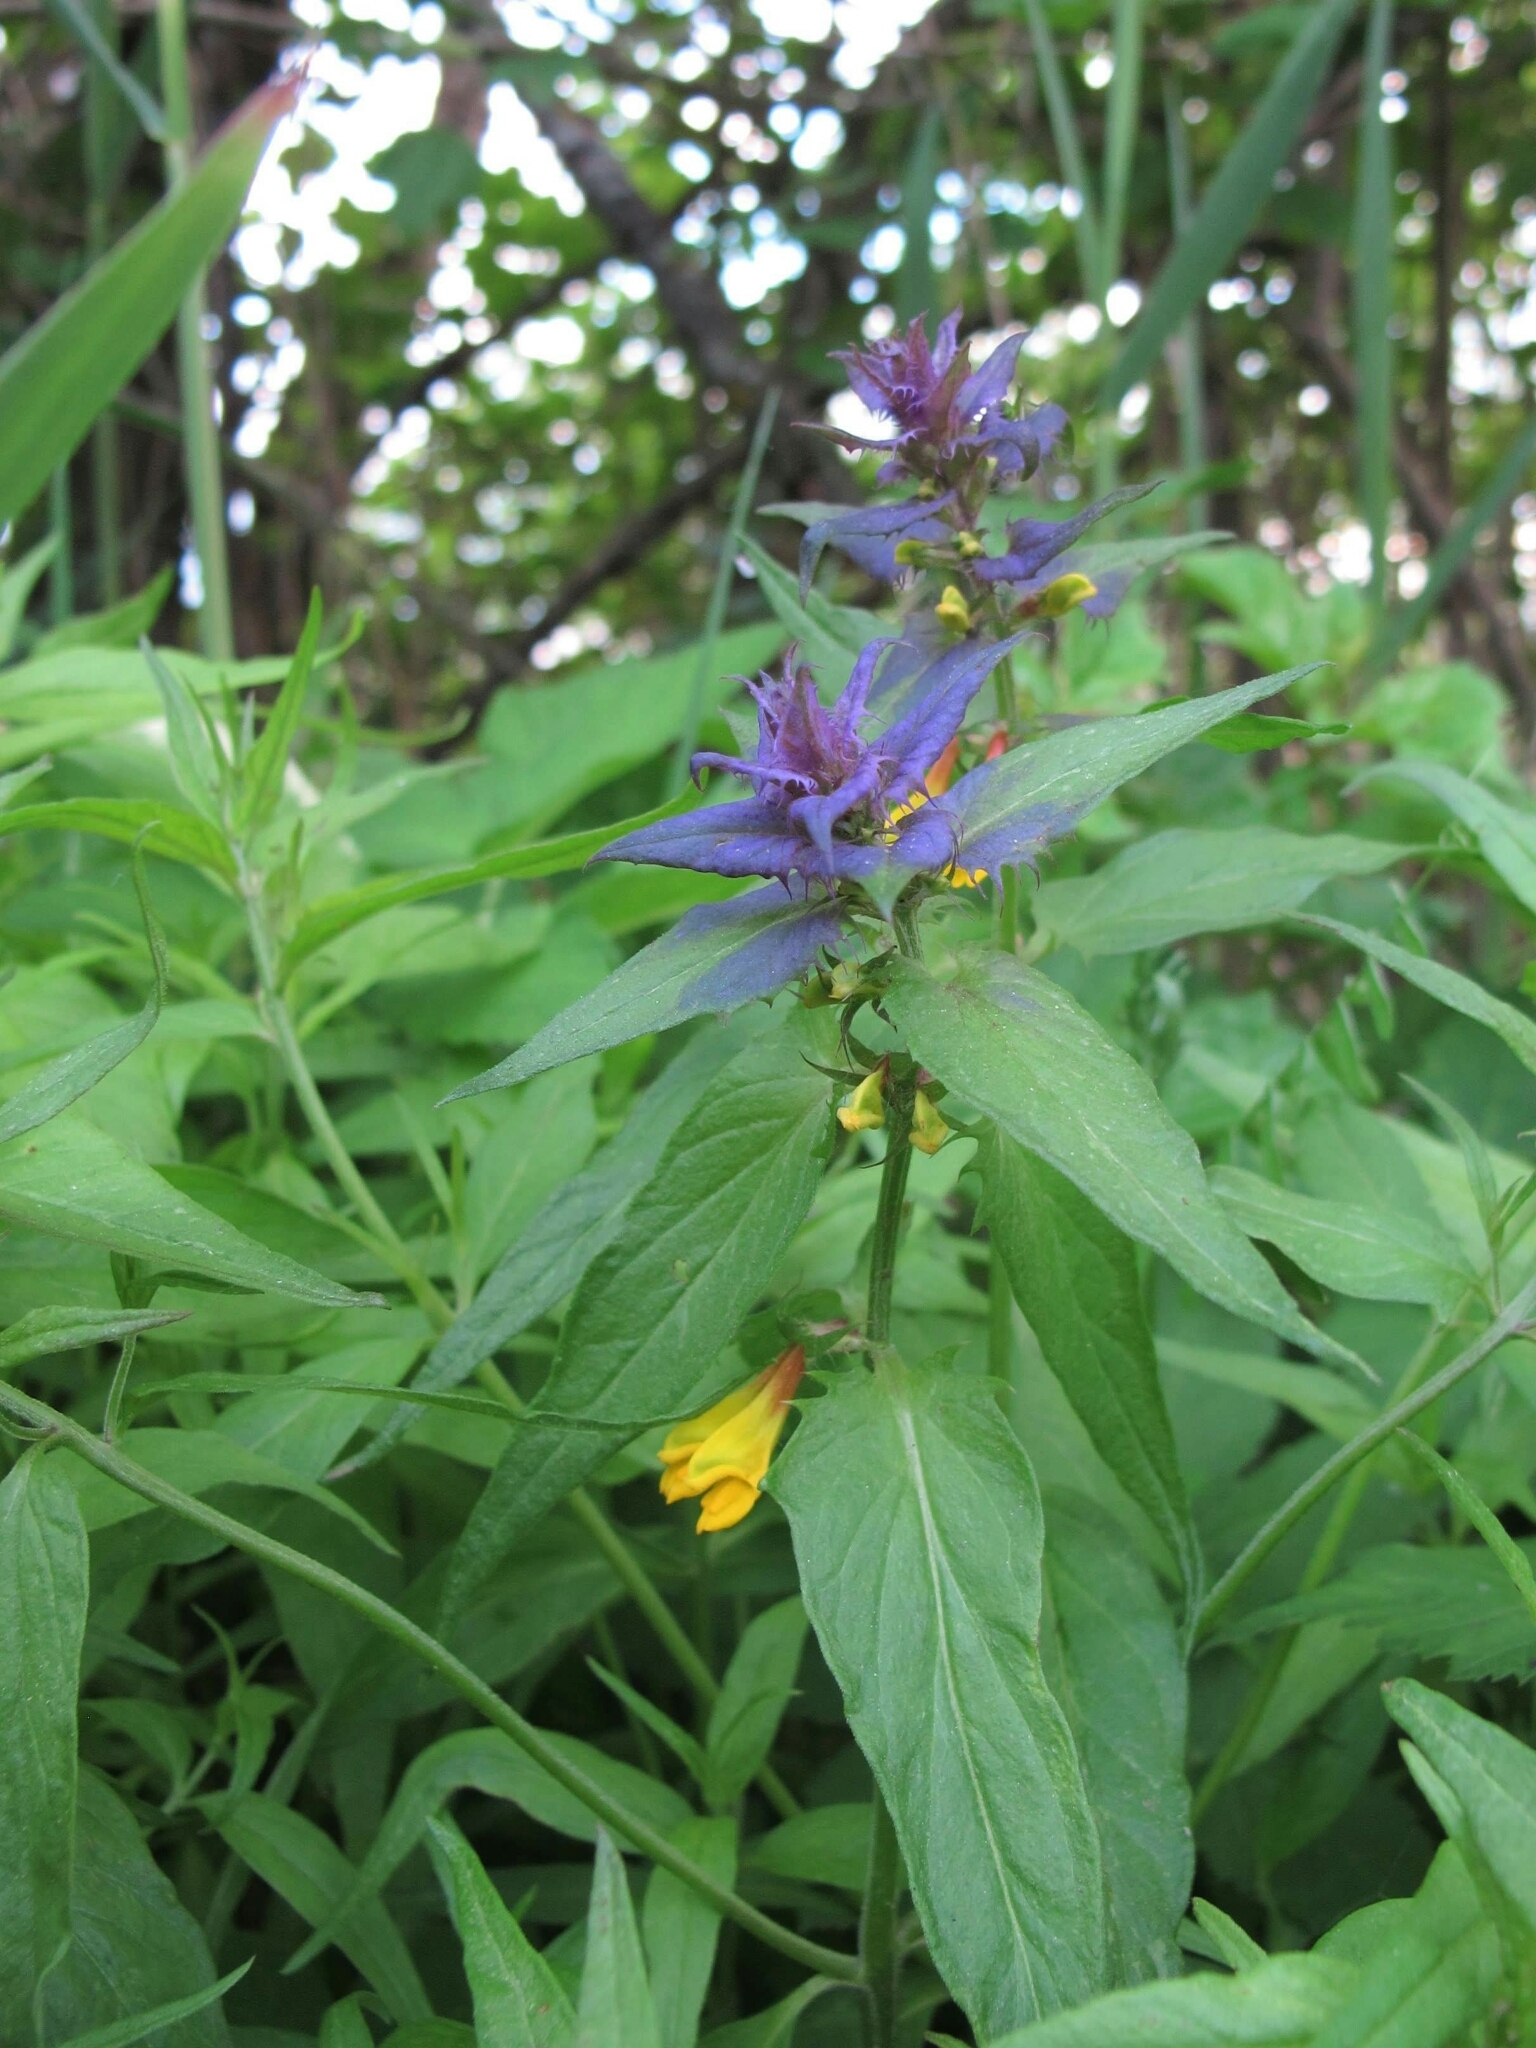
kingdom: Plantae
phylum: Tracheophyta
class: Magnoliopsida
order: Lamiales
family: Orobanchaceae
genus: Melampyrum
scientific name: Melampyrum nemorosum
